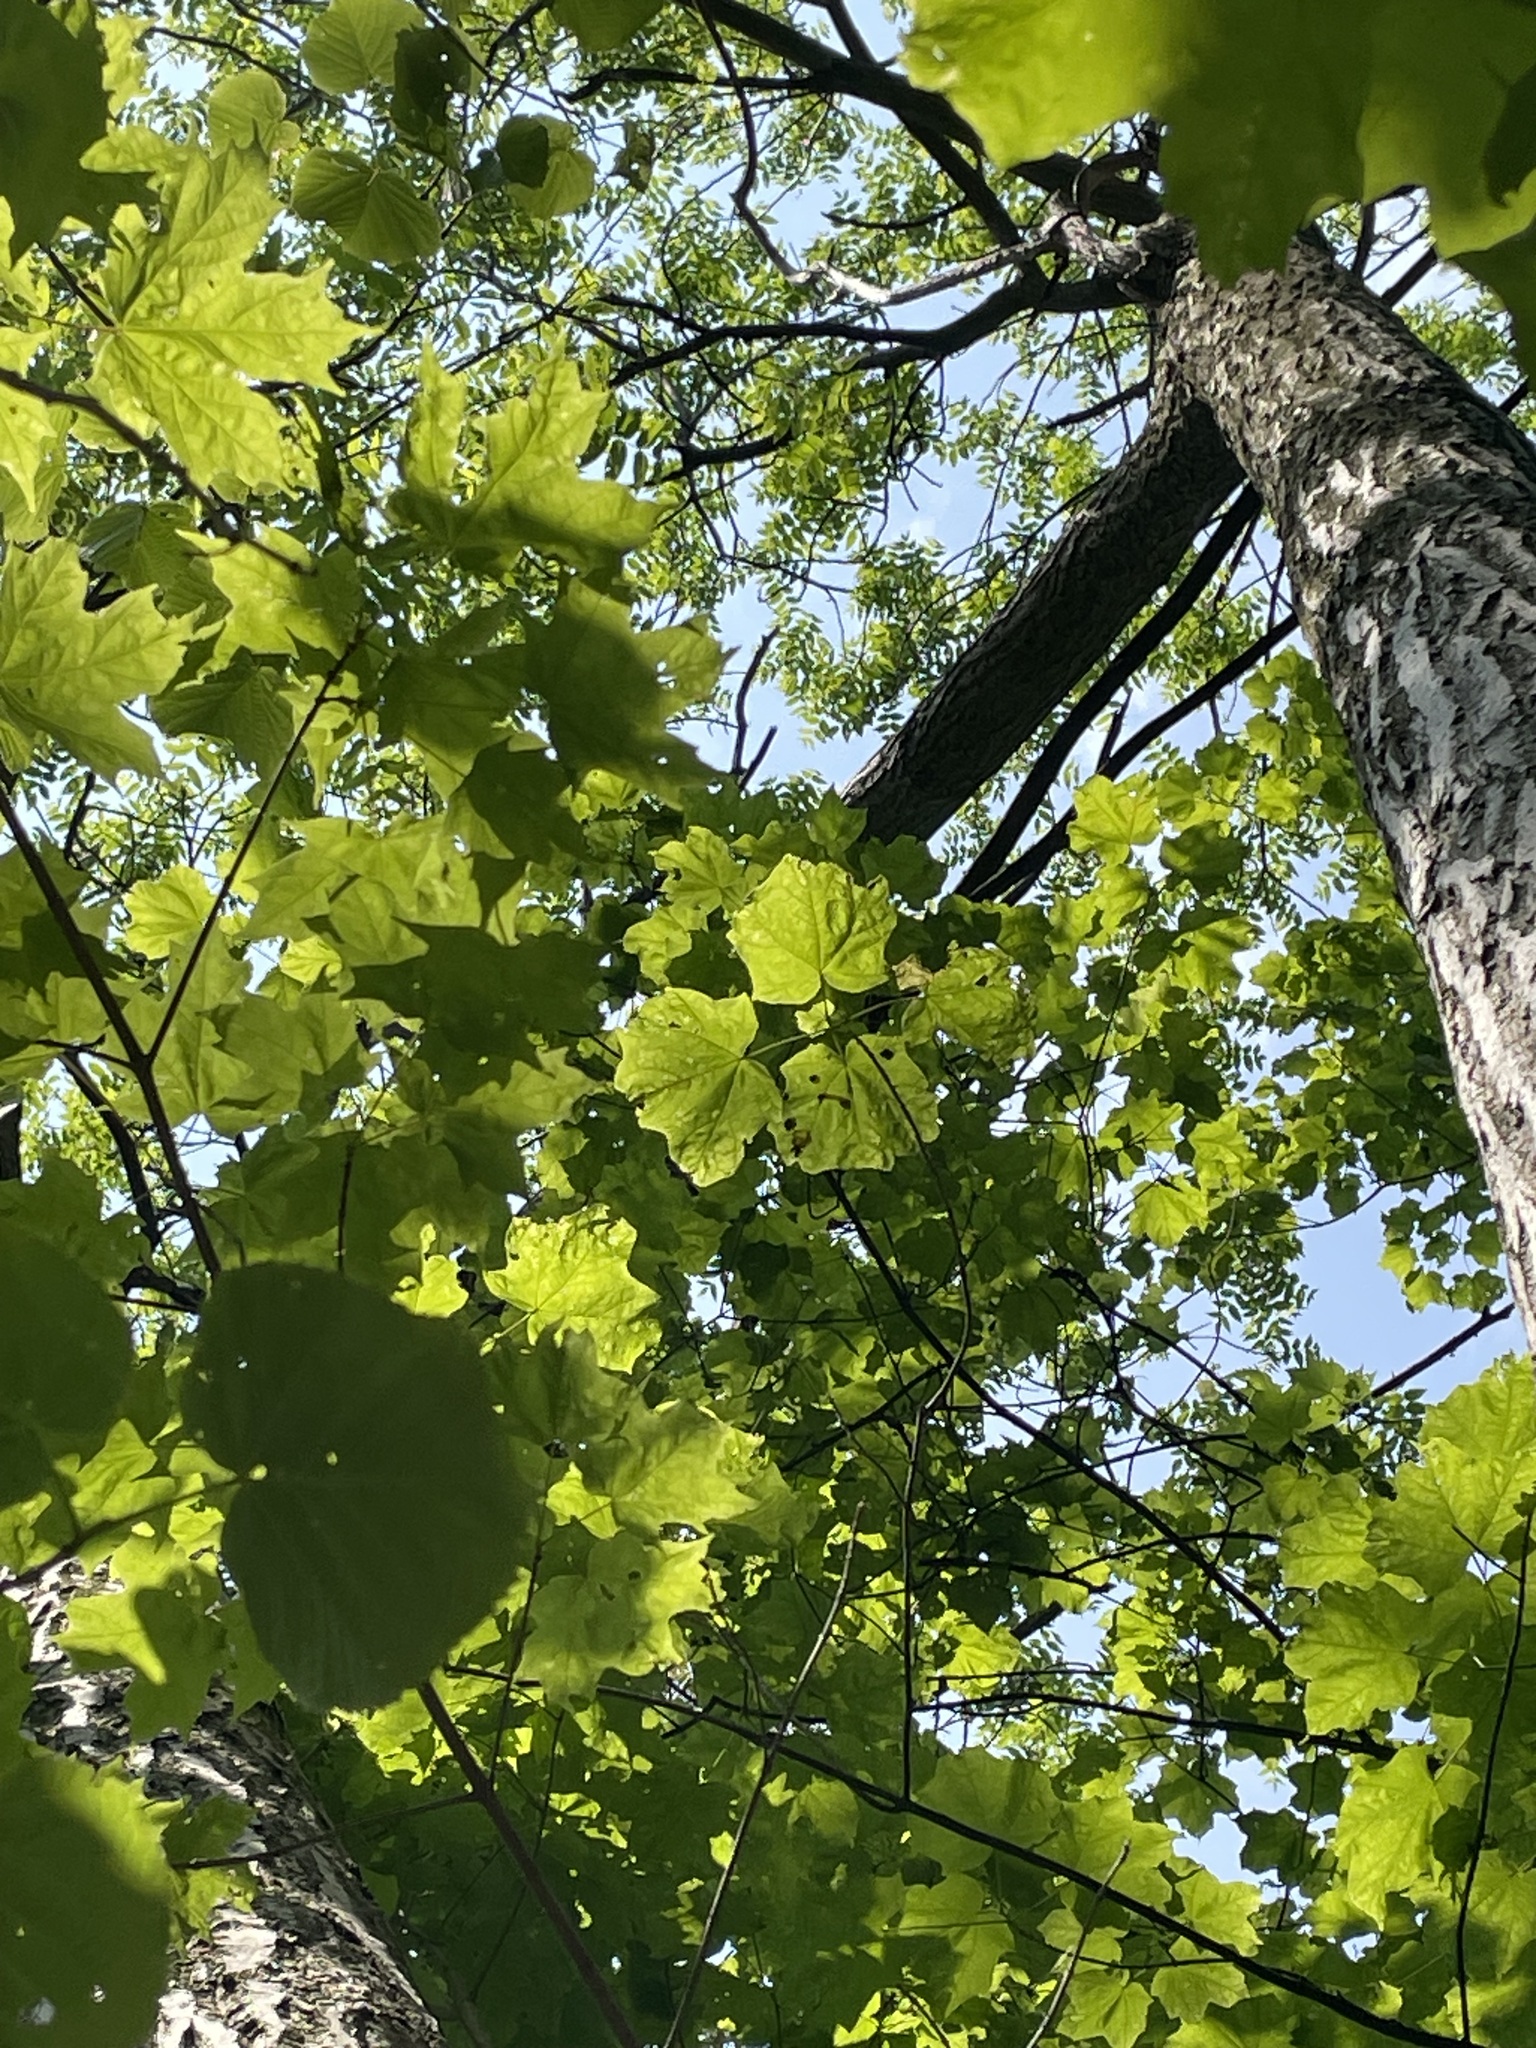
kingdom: Plantae
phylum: Tracheophyta
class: Magnoliopsida
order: Fagales
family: Juglandaceae
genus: Juglans
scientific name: Juglans cinerea
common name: Butternut
